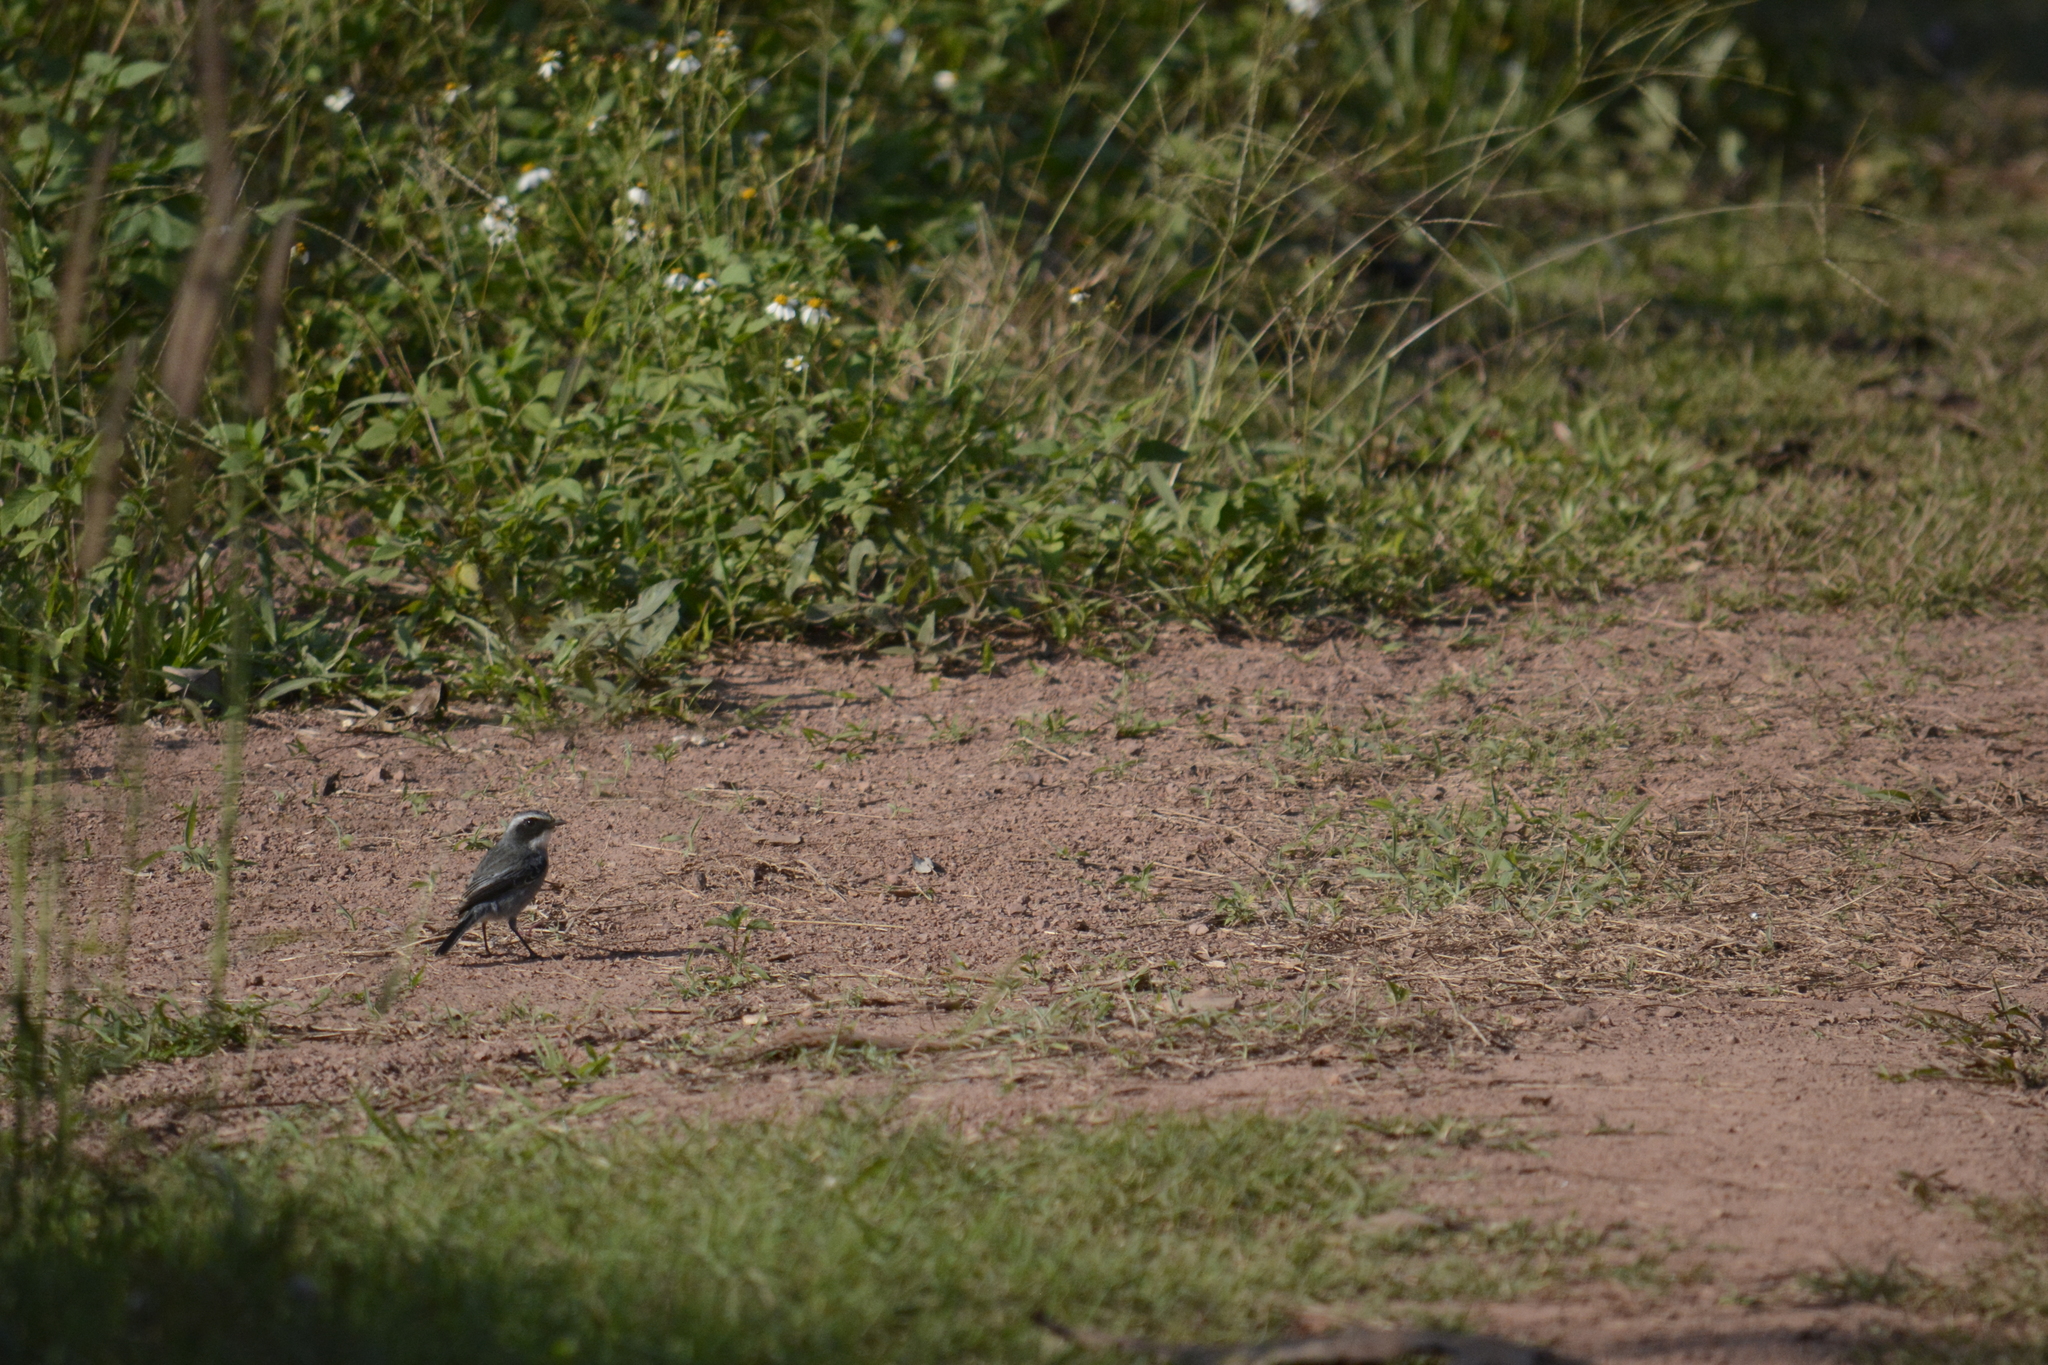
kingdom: Animalia
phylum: Chordata
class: Aves
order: Passeriformes
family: Muscicapidae
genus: Saxicola
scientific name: Saxicola ferreus
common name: Grey bush chat
